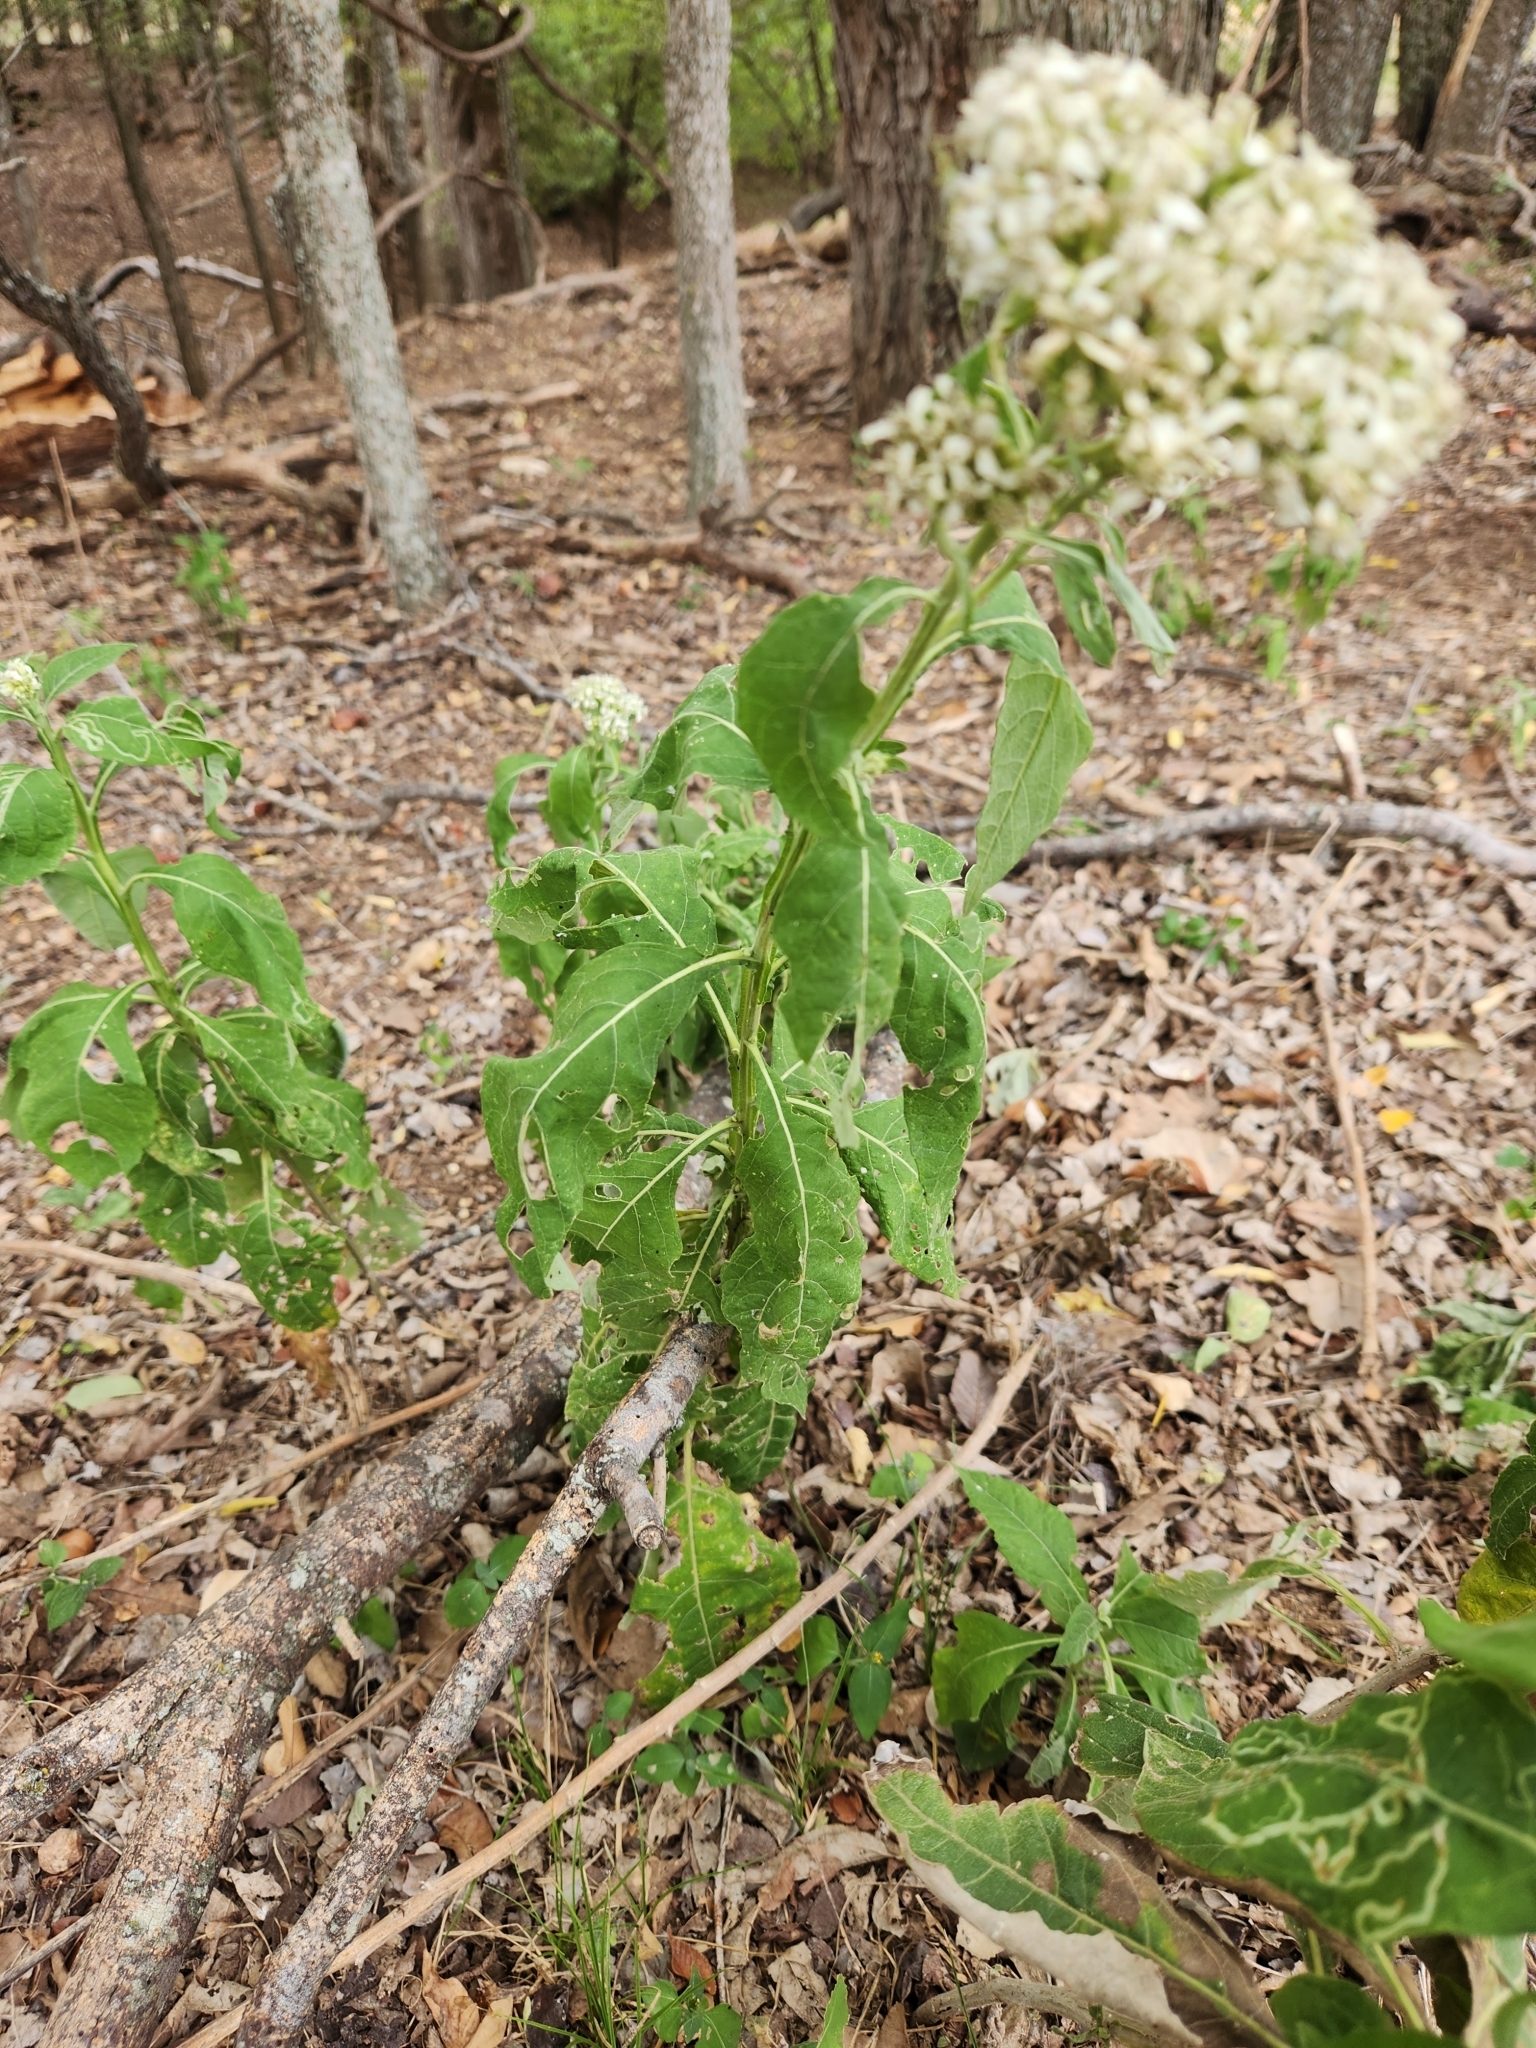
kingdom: Plantae
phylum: Tracheophyta
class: Magnoliopsida
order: Asterales
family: Asteraceae
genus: Verbesina
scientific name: Verbesina virginica
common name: Frostweed
